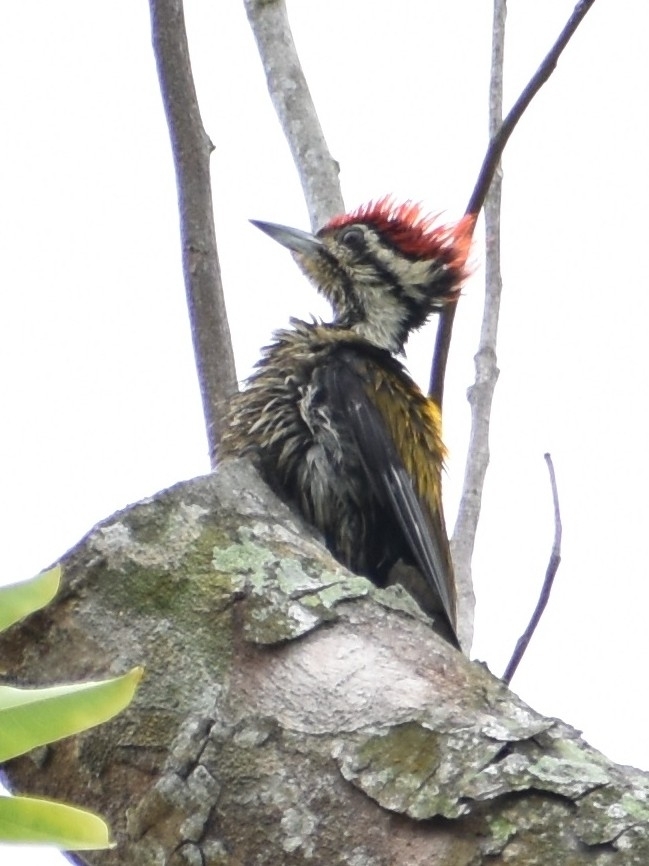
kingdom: Animalia
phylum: Chordata
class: Aves
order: Piciformes
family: Picidae
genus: Dinopium
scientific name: Dinopium javanense
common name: Common flameback
